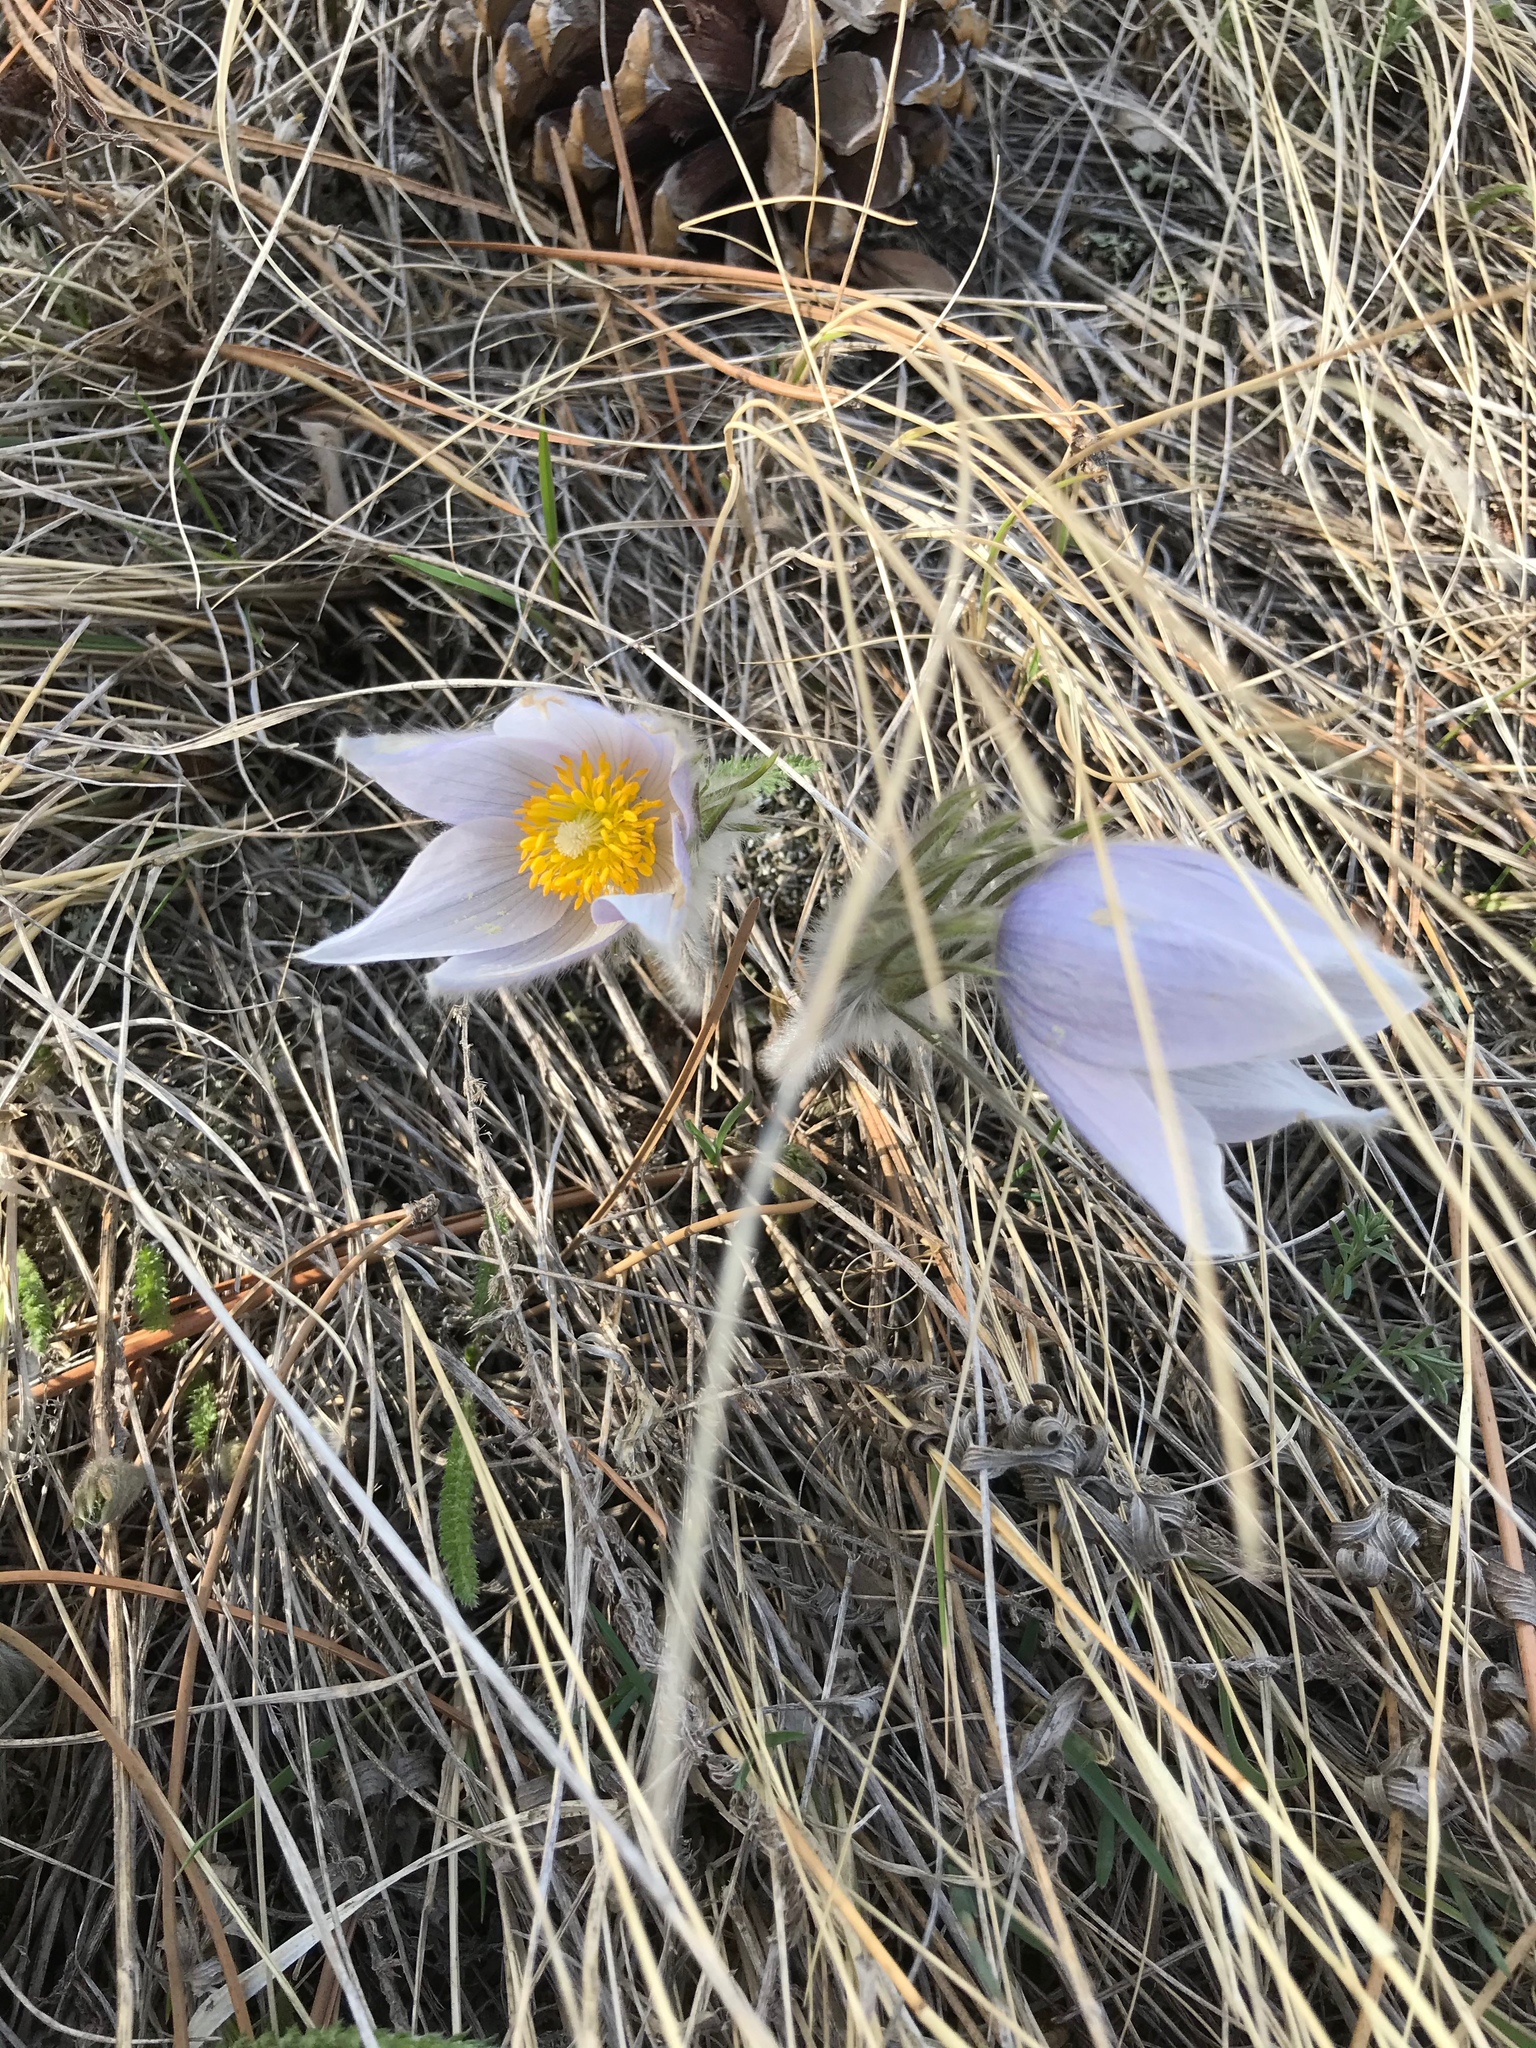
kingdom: Plantae
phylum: Tracheophyta
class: Magnoliopsida
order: Ranunculales
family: Ranunculaceae
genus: Pulsatilla
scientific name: Pulsatilla nuttalliana
